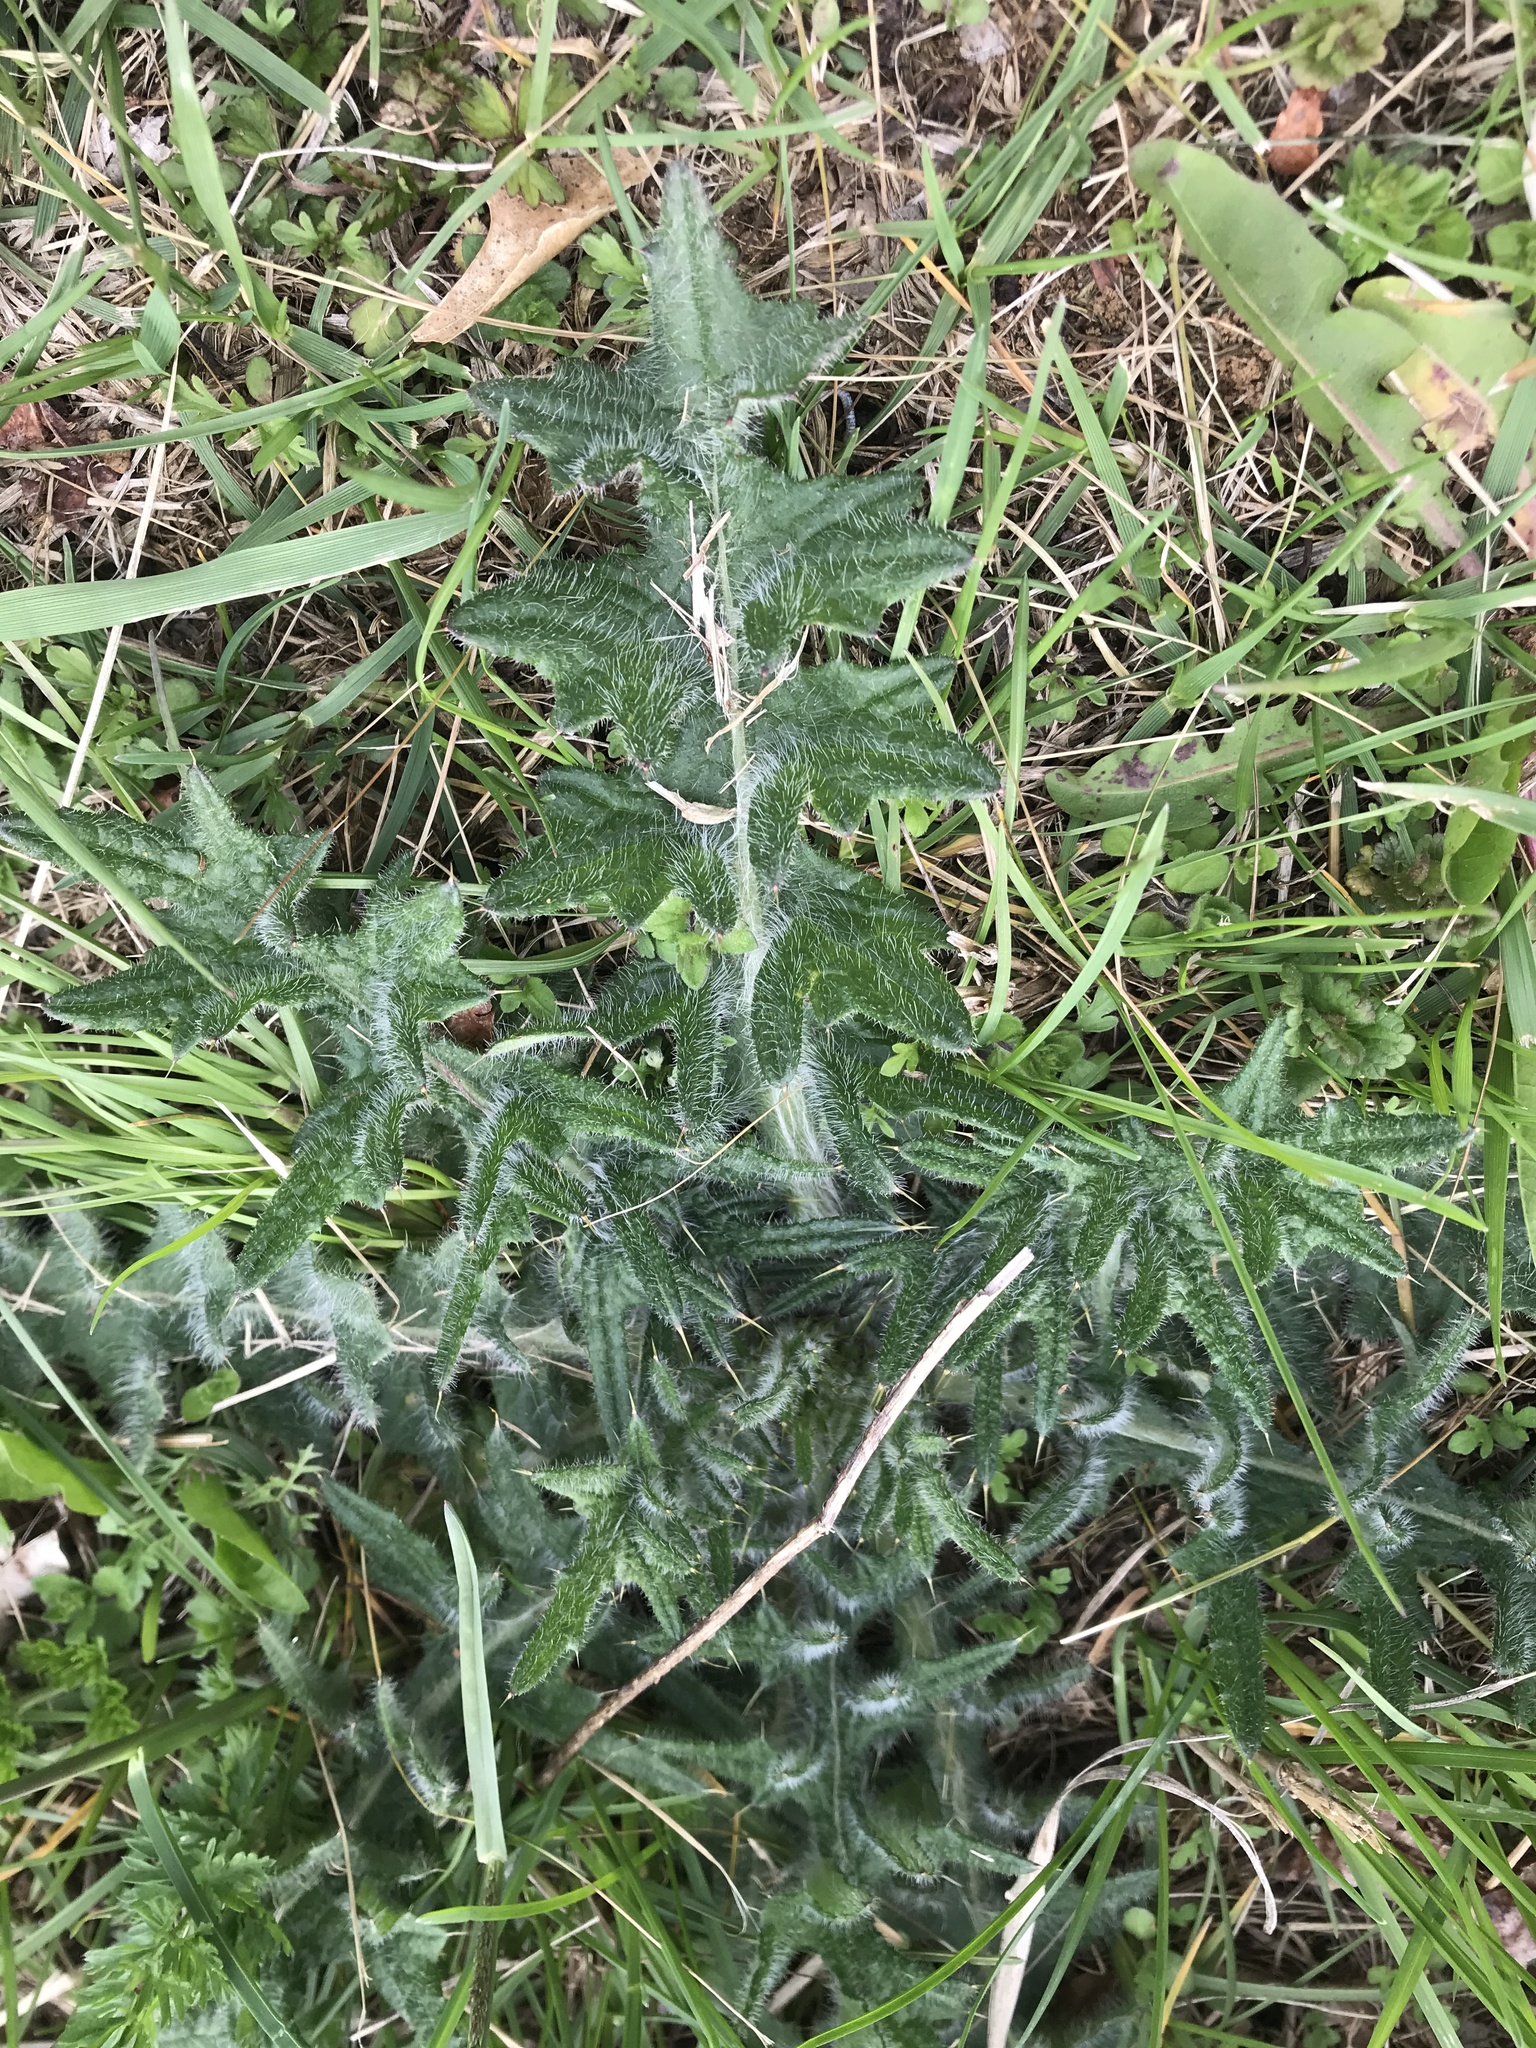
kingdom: Plantae
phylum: Tracheophyta
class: Magnoliopsida
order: Asterales
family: Asteraceae
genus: Cirsium
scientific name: Cirsium vulgare
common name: Bull thistle
